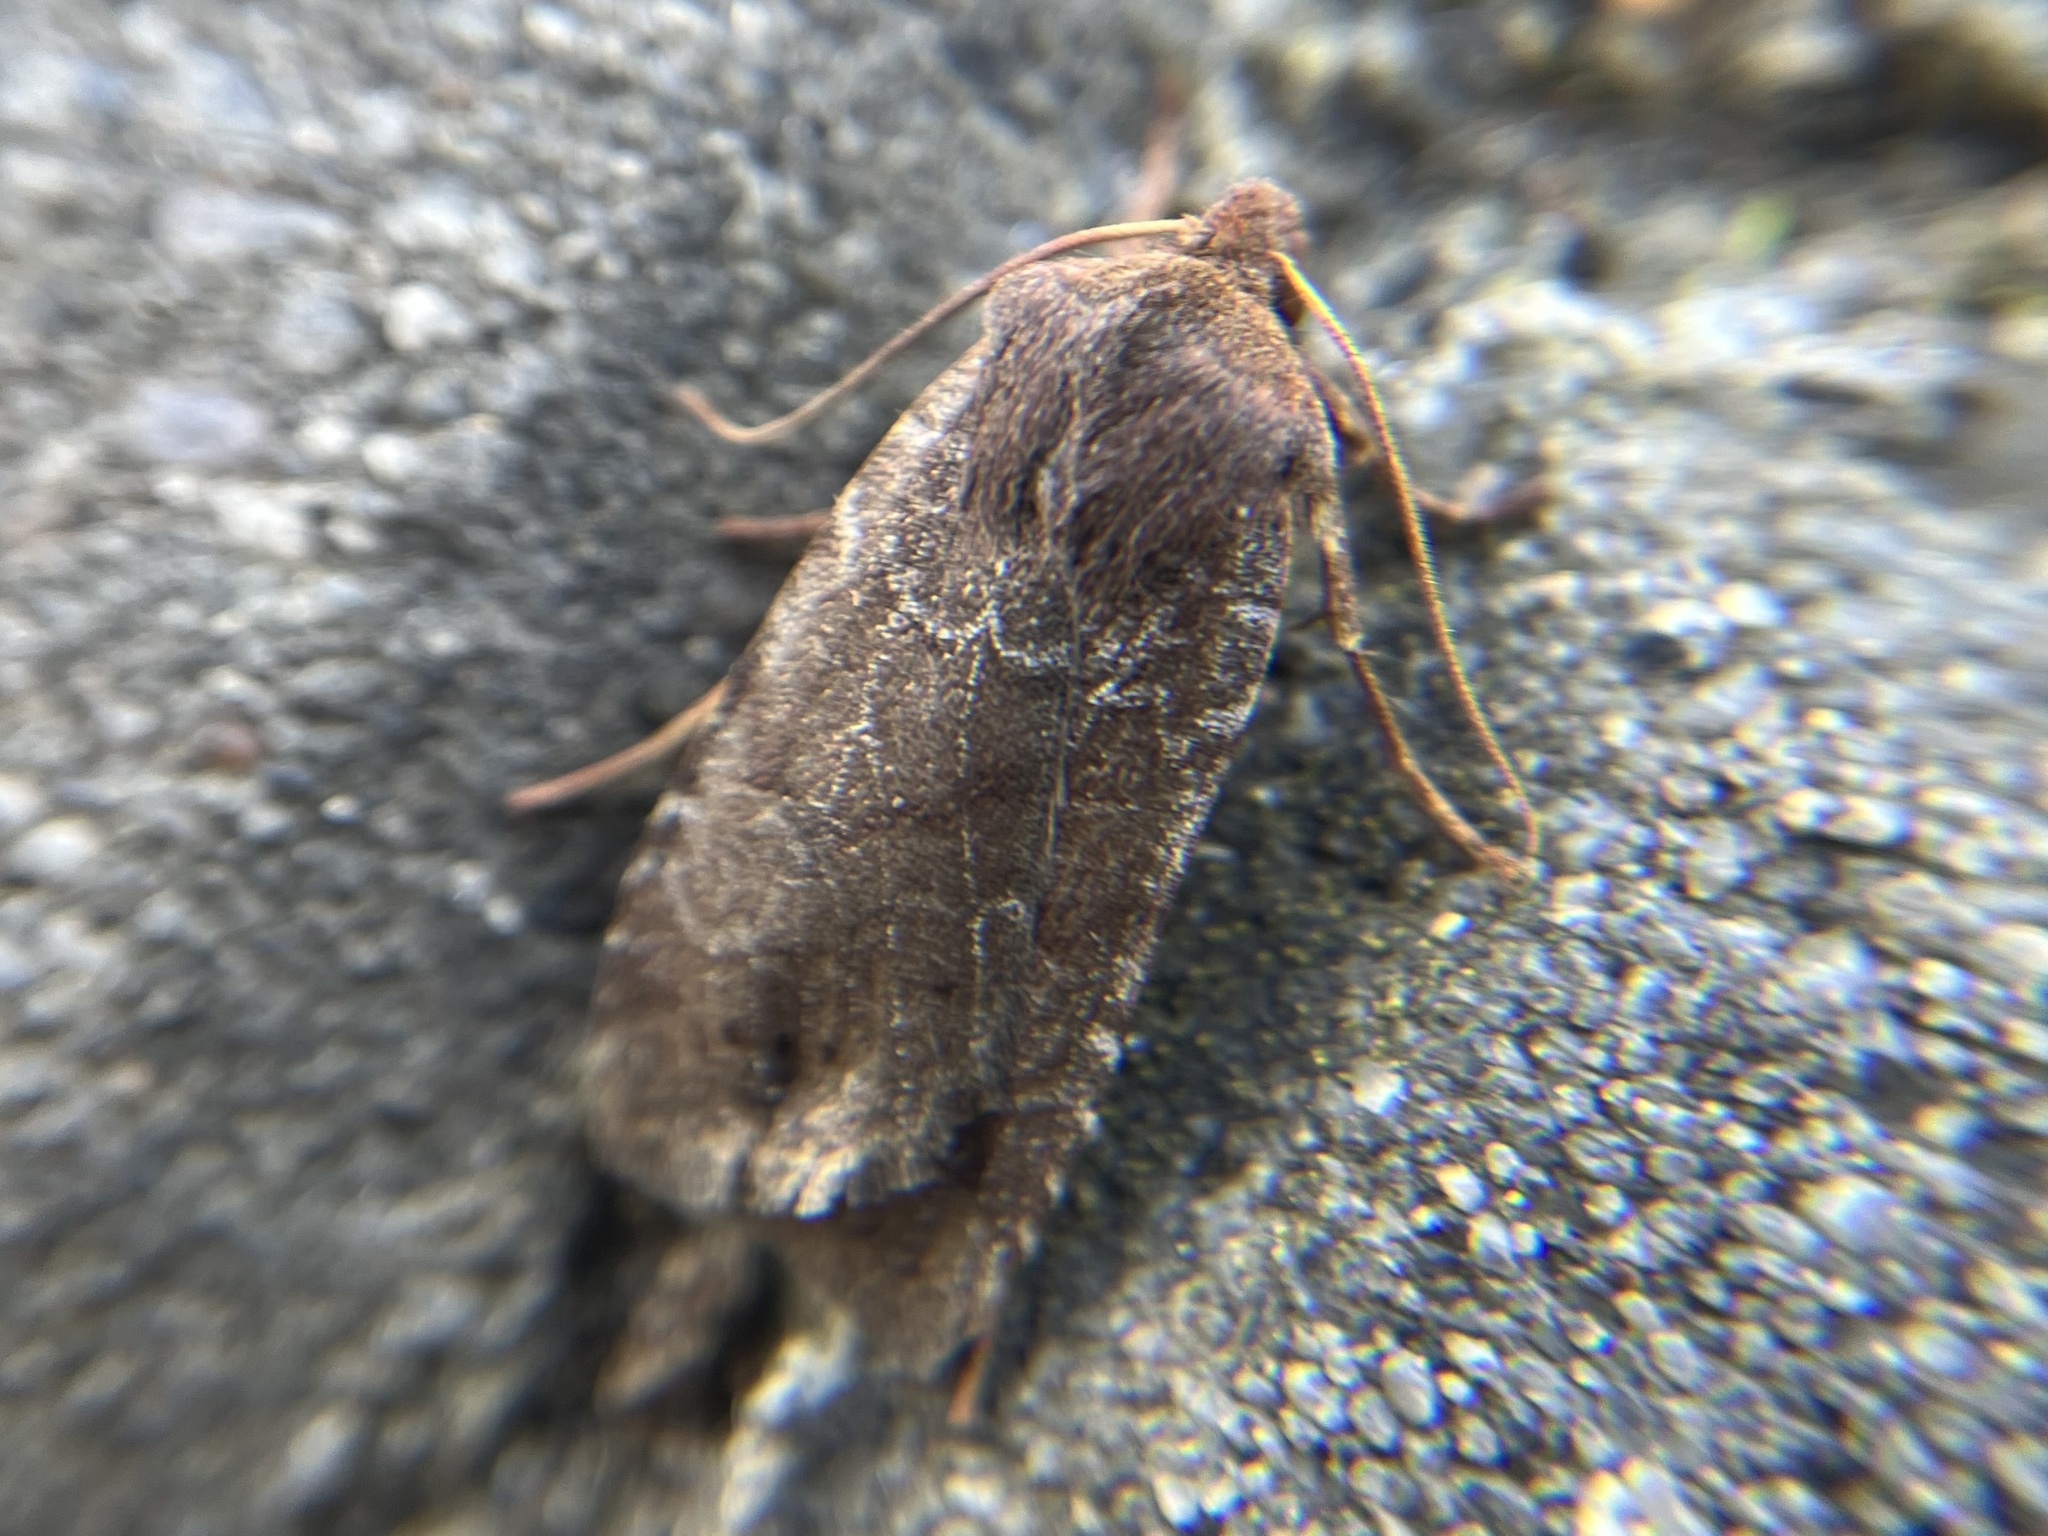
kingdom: Animalia
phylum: Arthropoda
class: Insecta
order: Lepidoptera
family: Noctuidae
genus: Conistra
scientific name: Conistra vaccinii
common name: Chestnut
